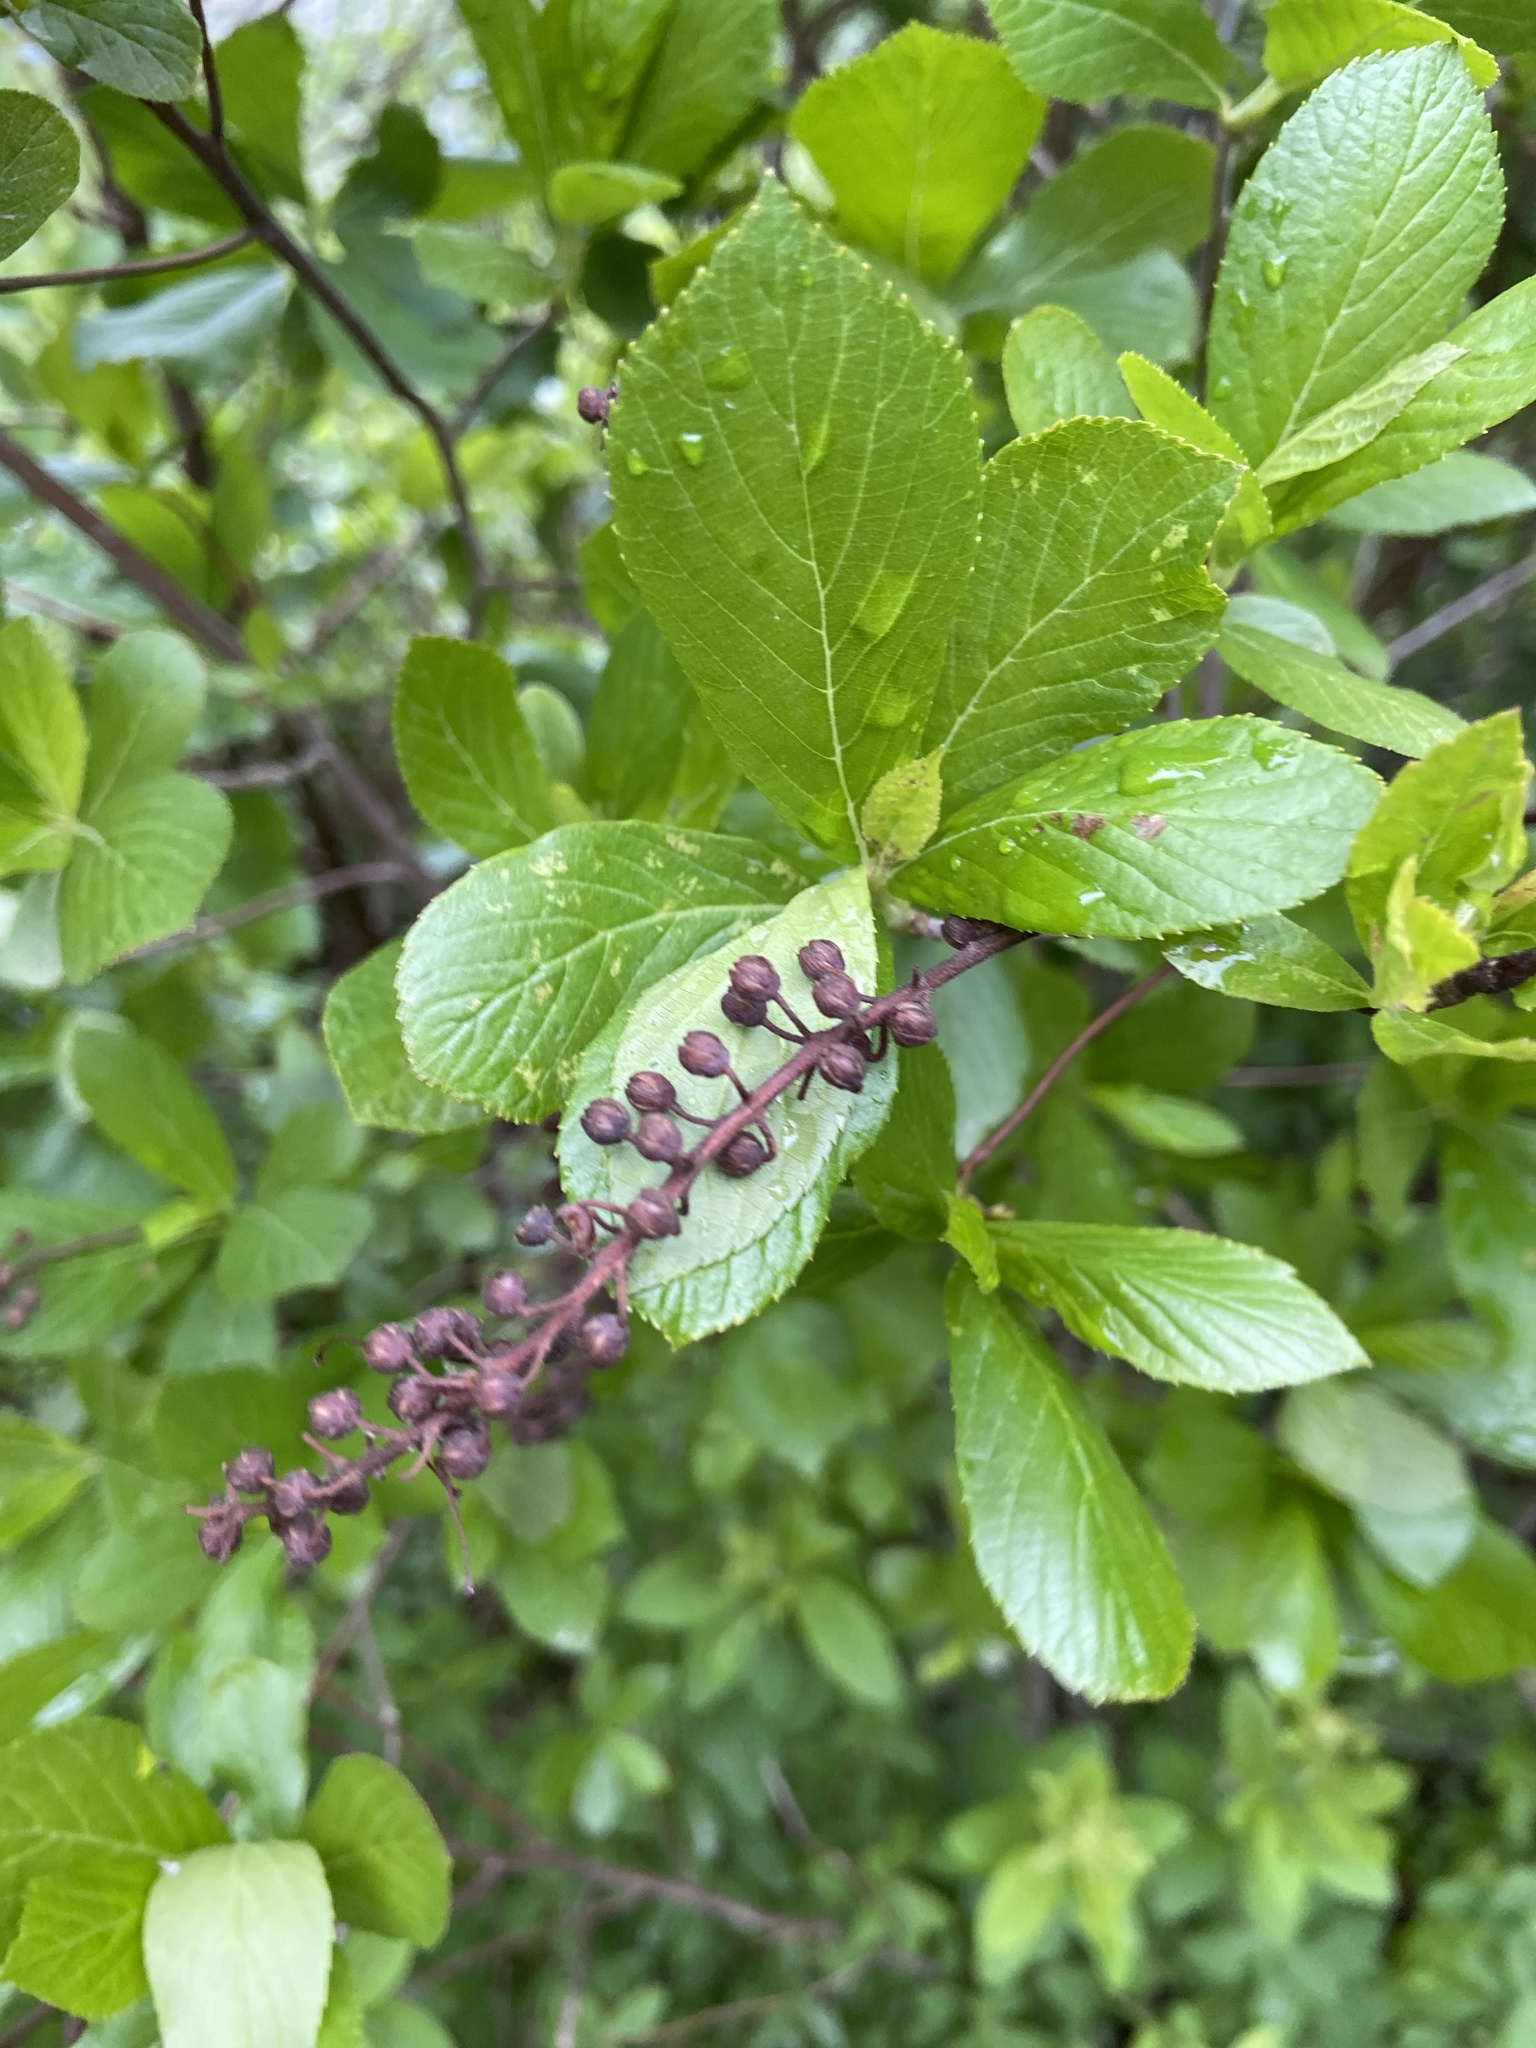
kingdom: Plantae
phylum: Tracheophyta
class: Magnoliopsida
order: Ericales
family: Clethraceae
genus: Clethra
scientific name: Clethra alnifolia
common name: Sweet pepperbush
